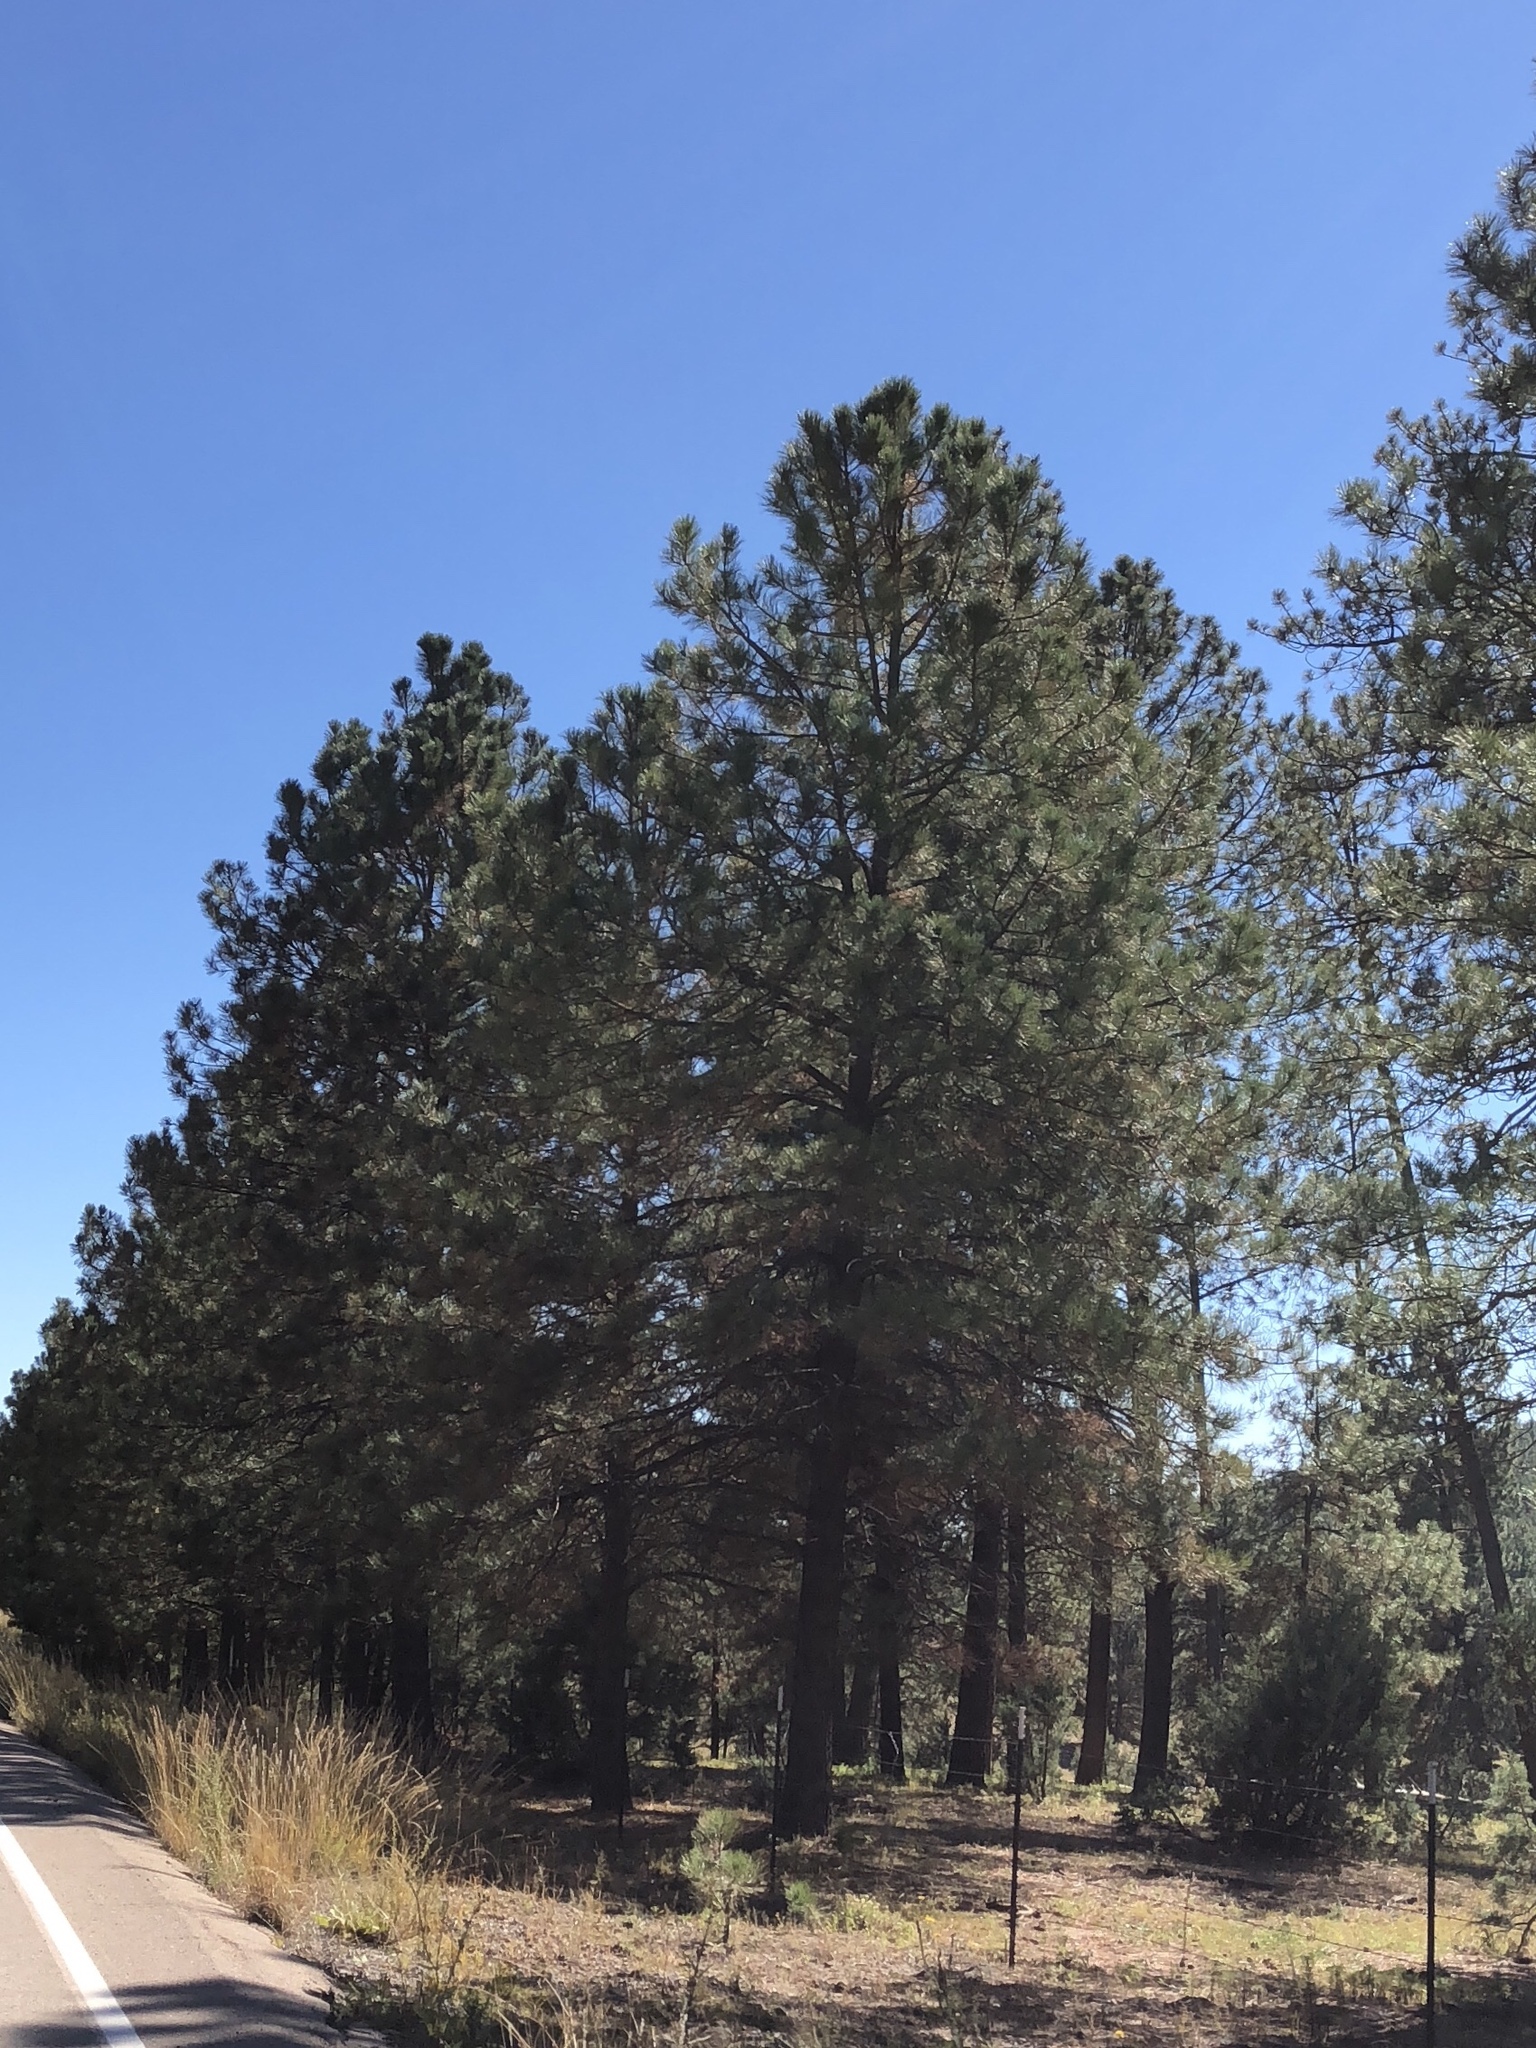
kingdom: Plantae
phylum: Tracheophyta
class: Pinopsida
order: Pinales
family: Pinaceae
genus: Pinus
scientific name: Pinus ponderosa
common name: Western yellow-pine
